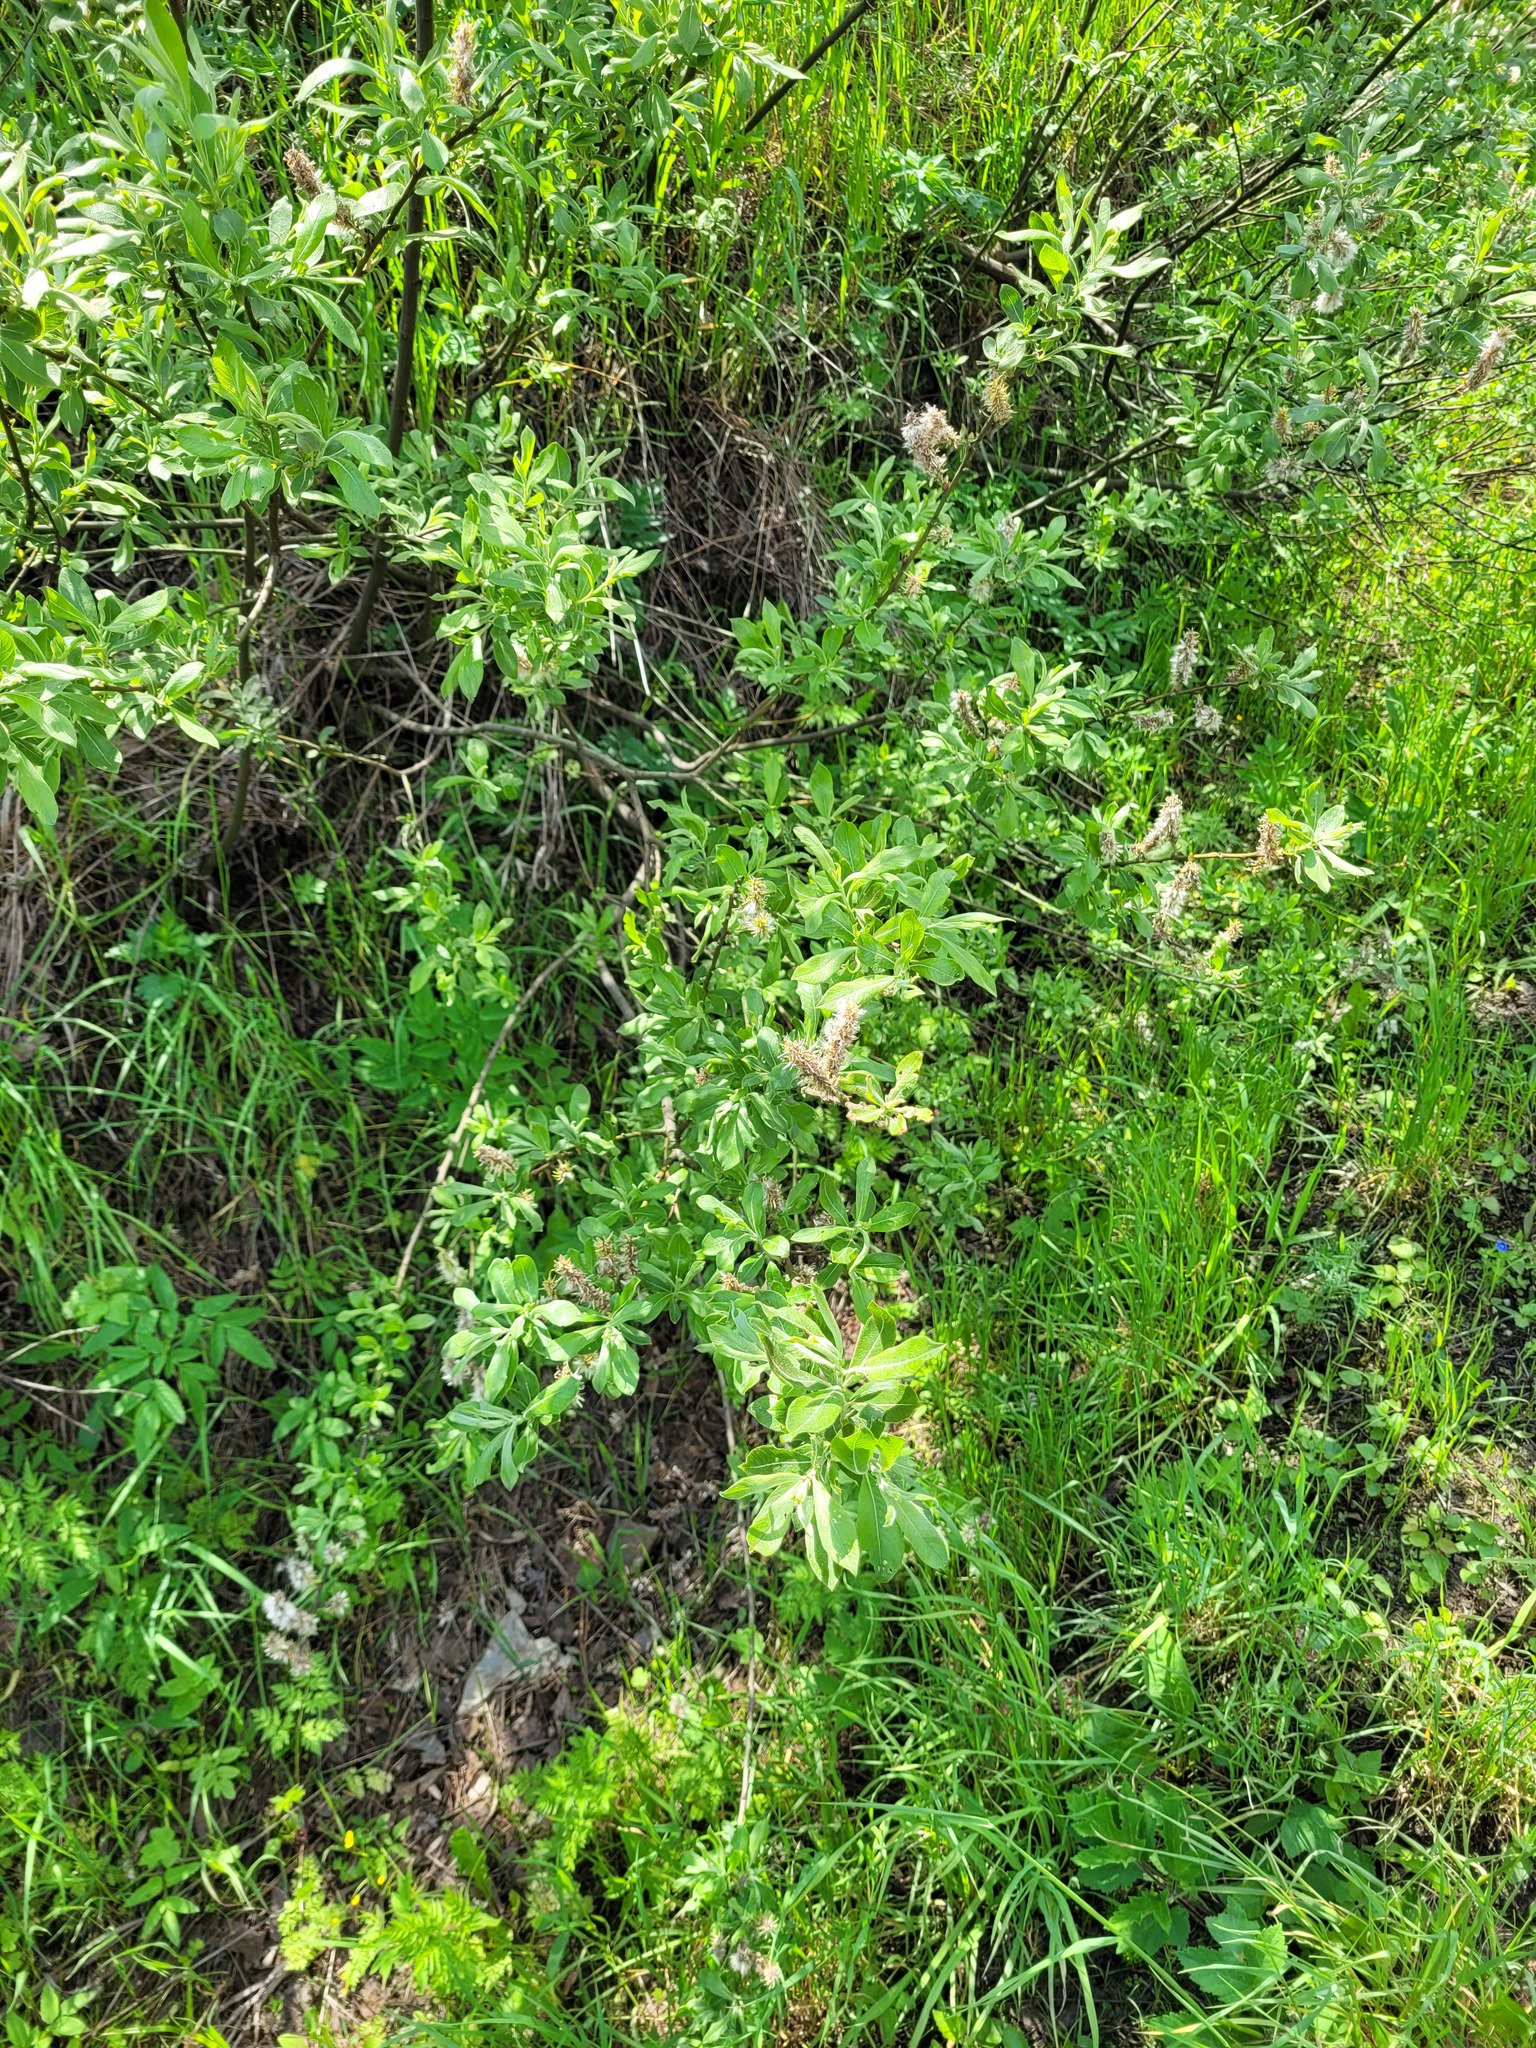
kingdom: Plantae
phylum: Tracheophyta
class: Magnoliopsida
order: Malpighiales
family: Salicaceae
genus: Salix
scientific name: Salix cinerea
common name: Common sallow
